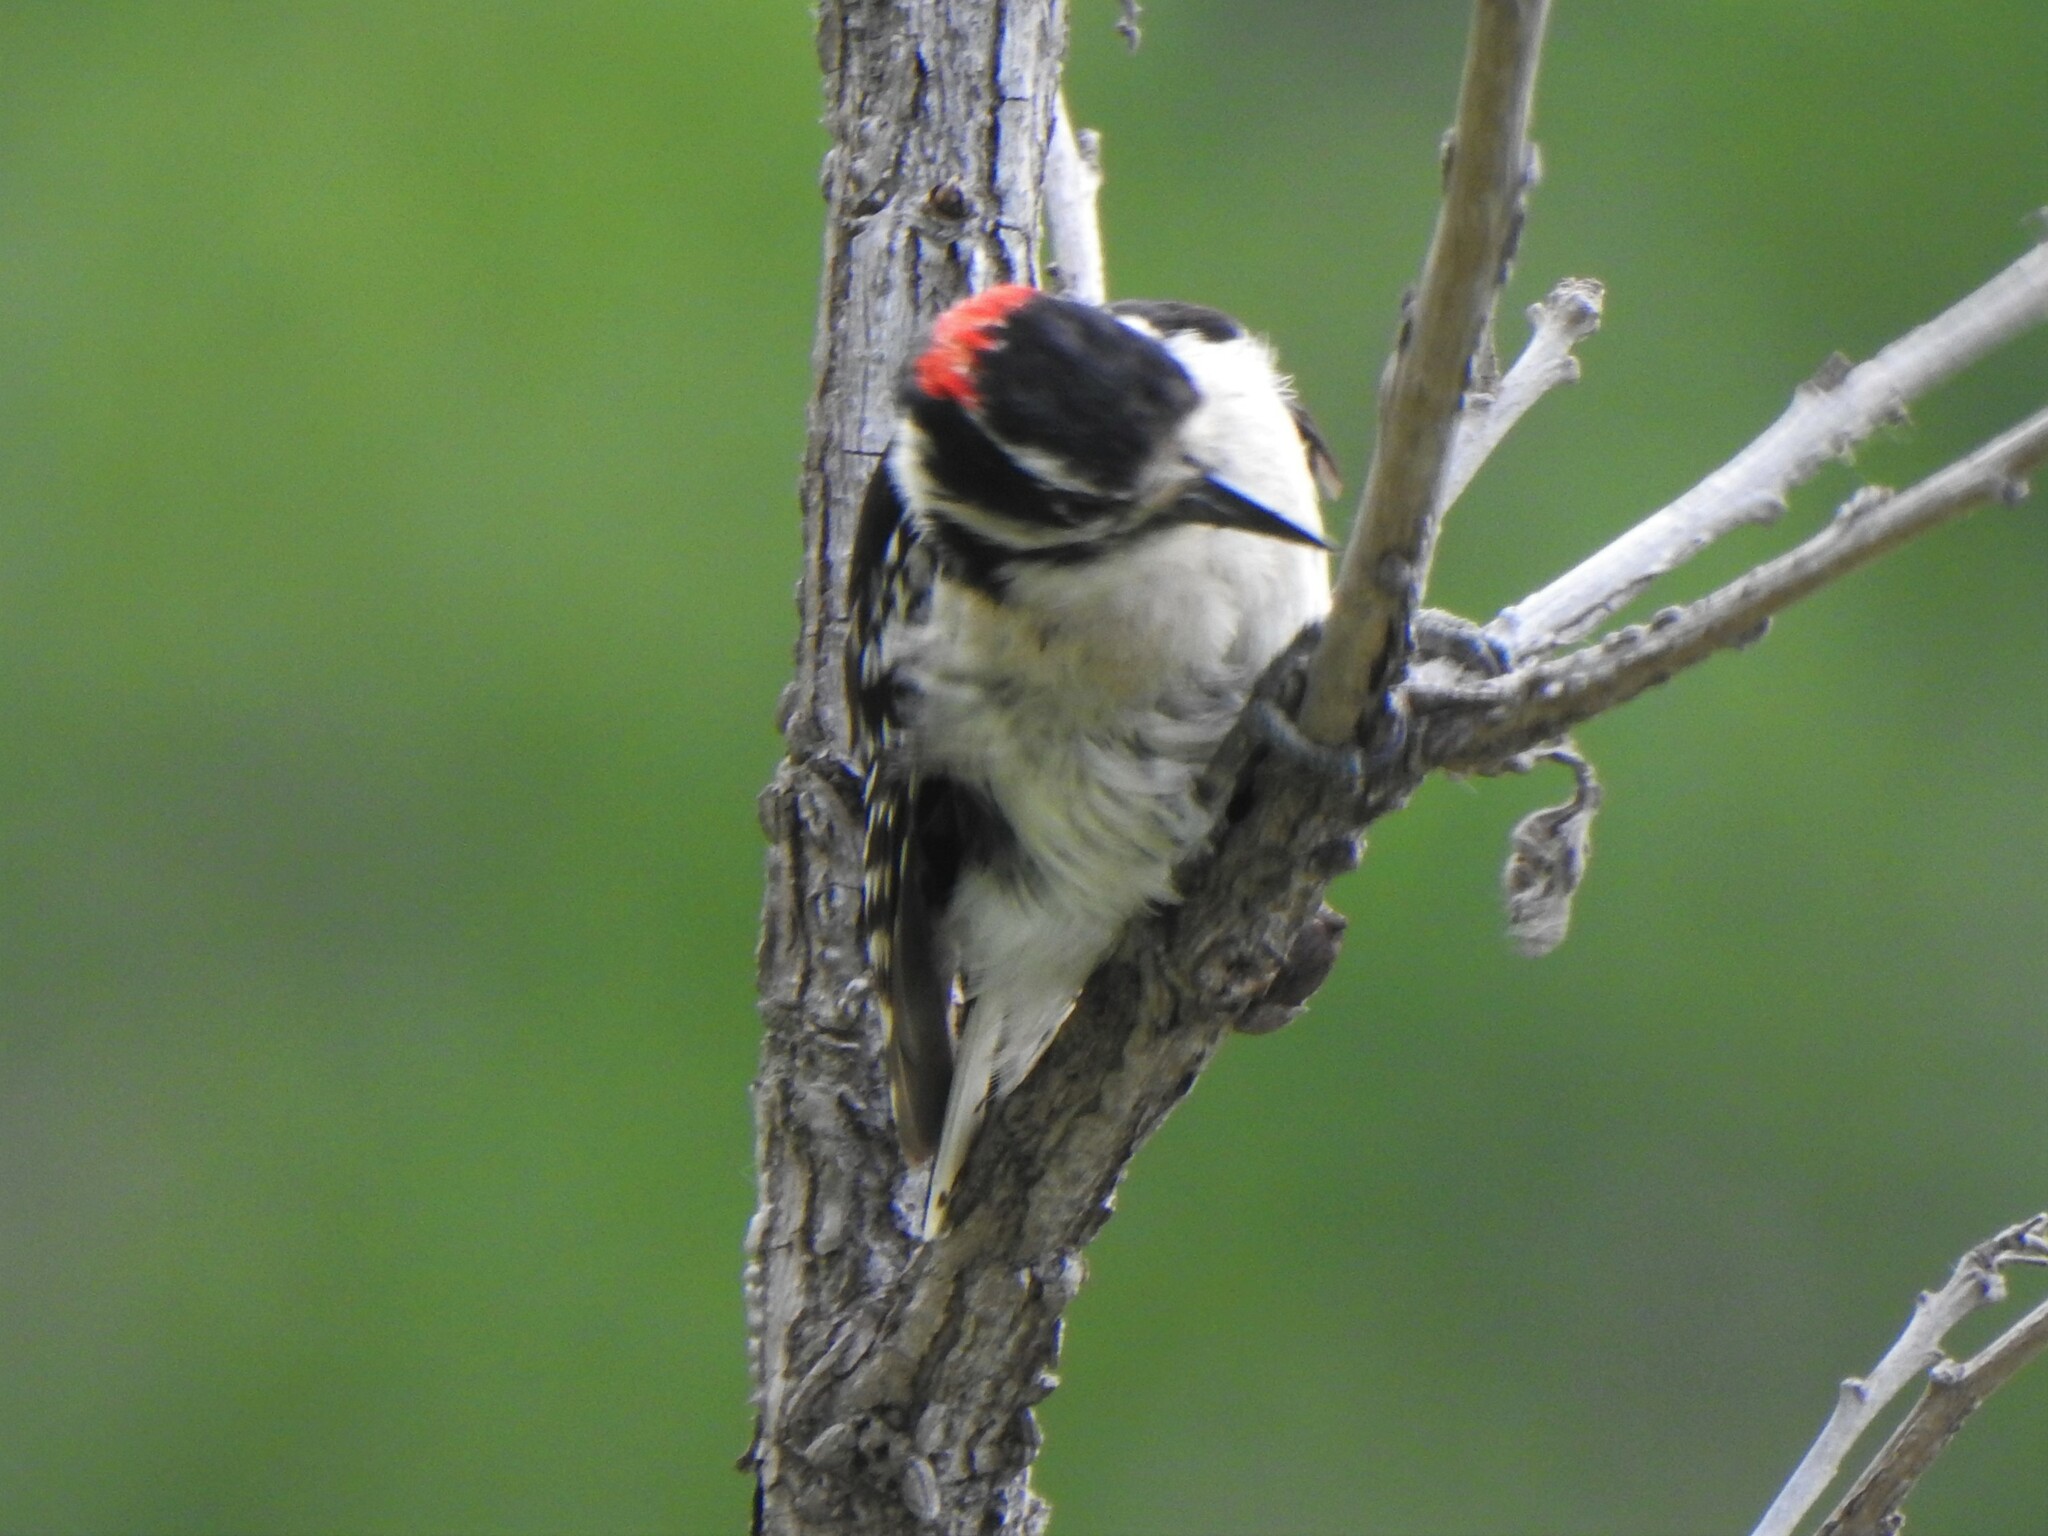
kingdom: Animalia
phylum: Chordata
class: Aves
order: Piciformes
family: Picidae
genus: Leuconotopicus
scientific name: Leuconotopicus villosus
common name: Hairy woodpecker
